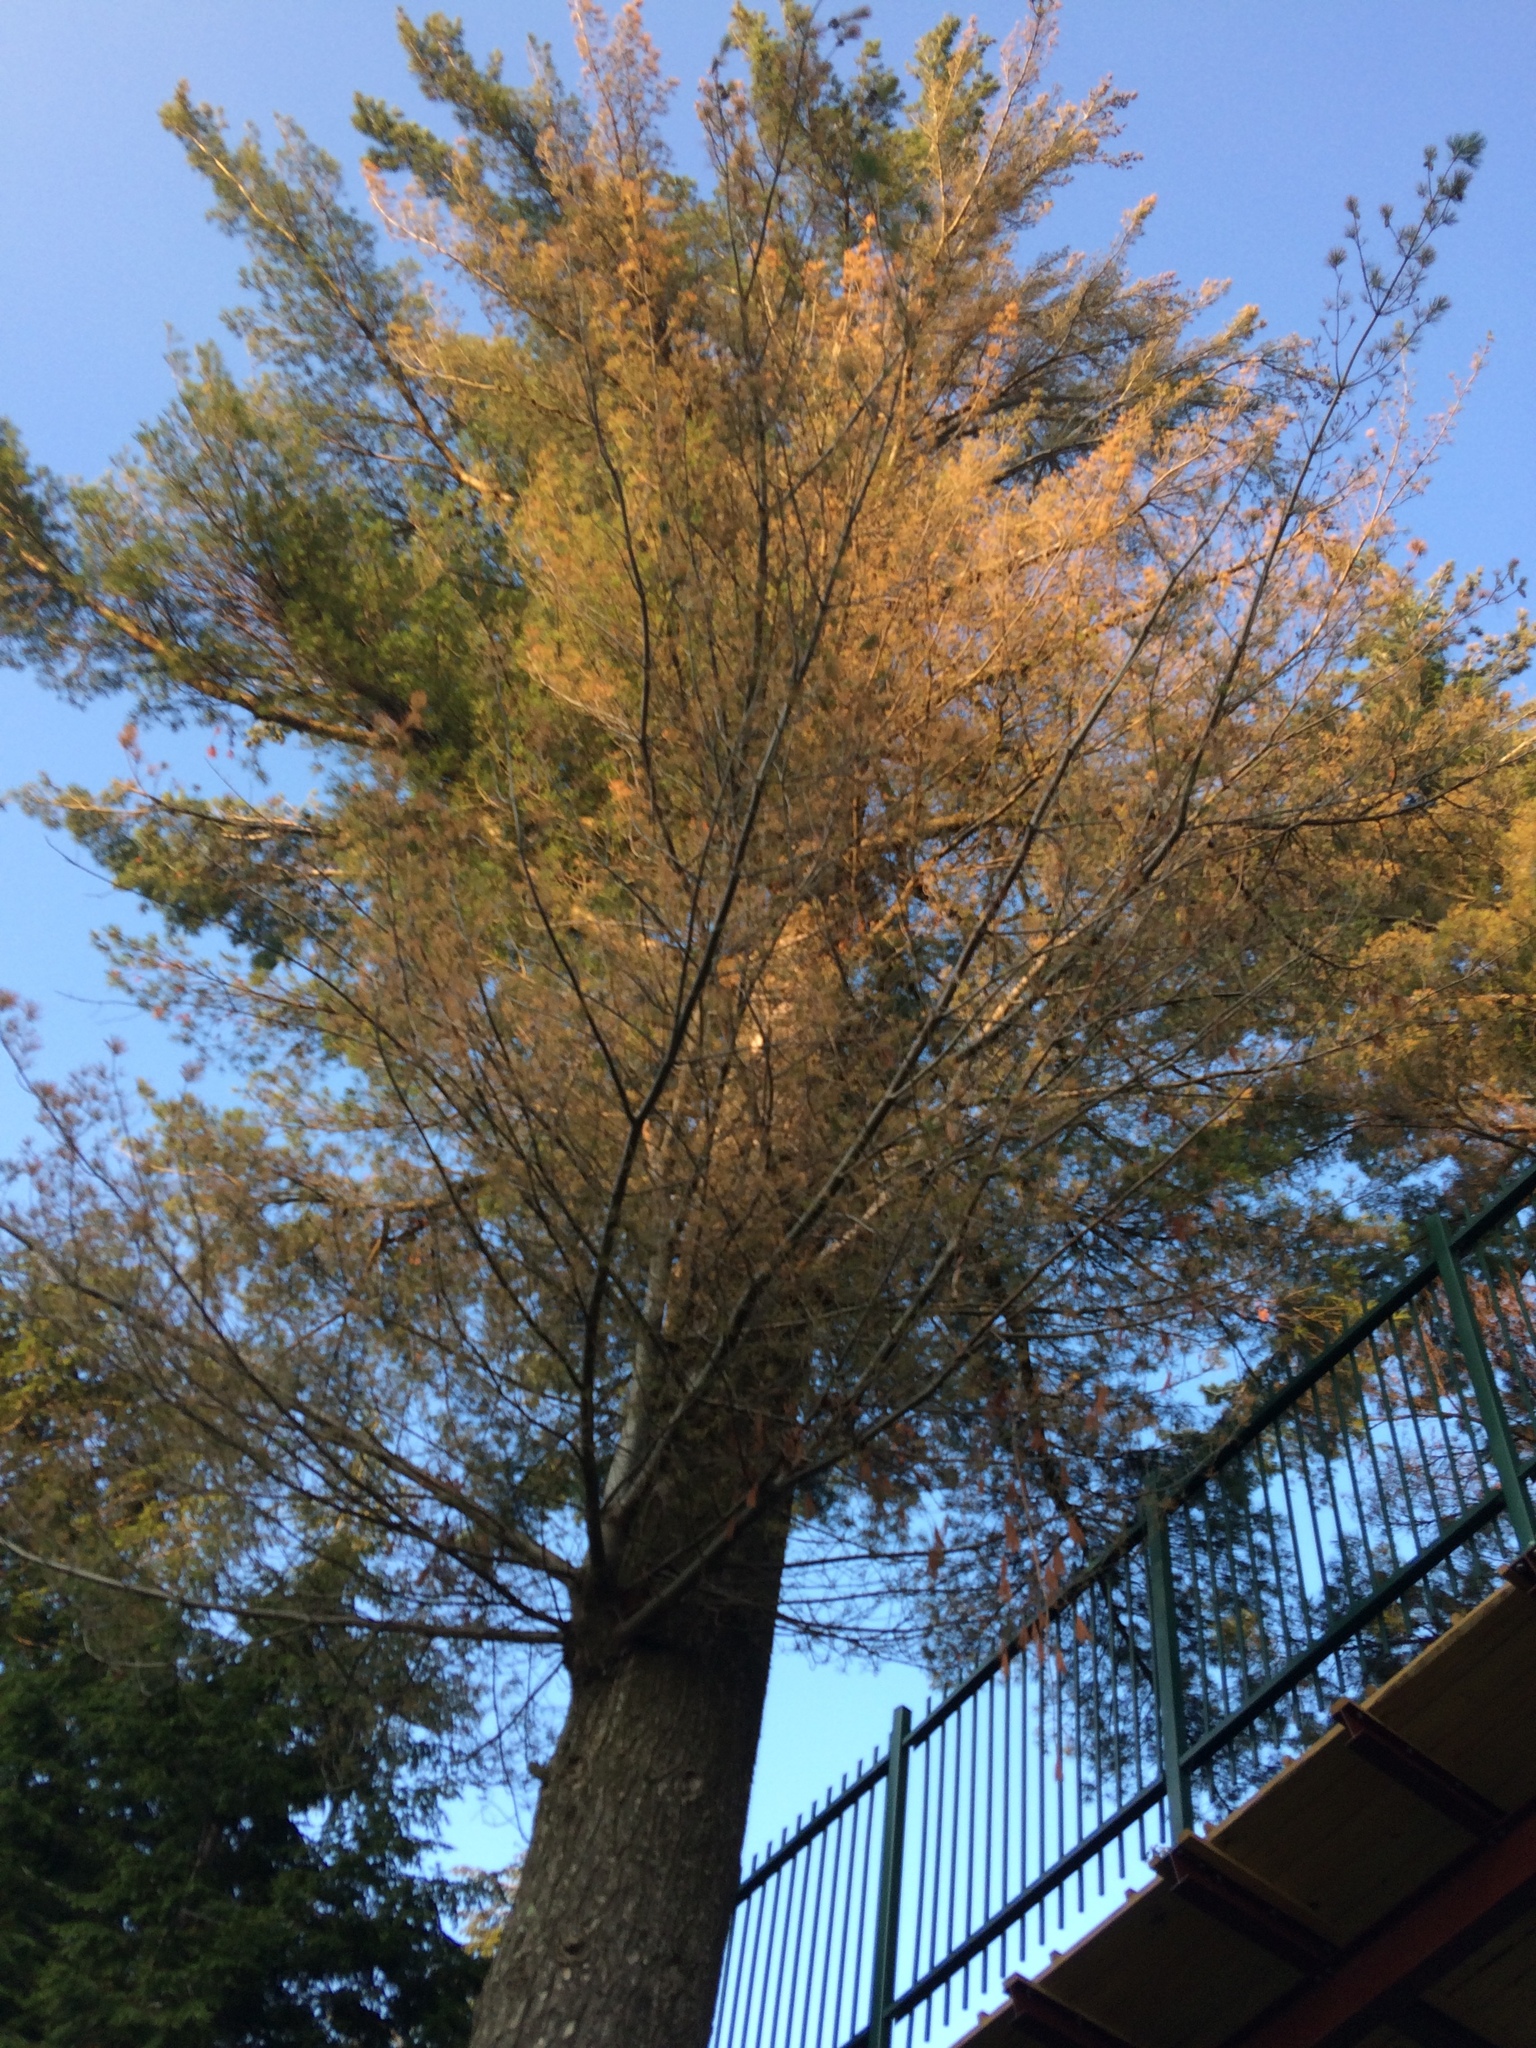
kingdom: Plantae
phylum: Tracheophyta
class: Pinopsida
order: Pinales
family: Pinaceae
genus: Pinus
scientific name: Pinus strobus
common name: Weymouth pine
